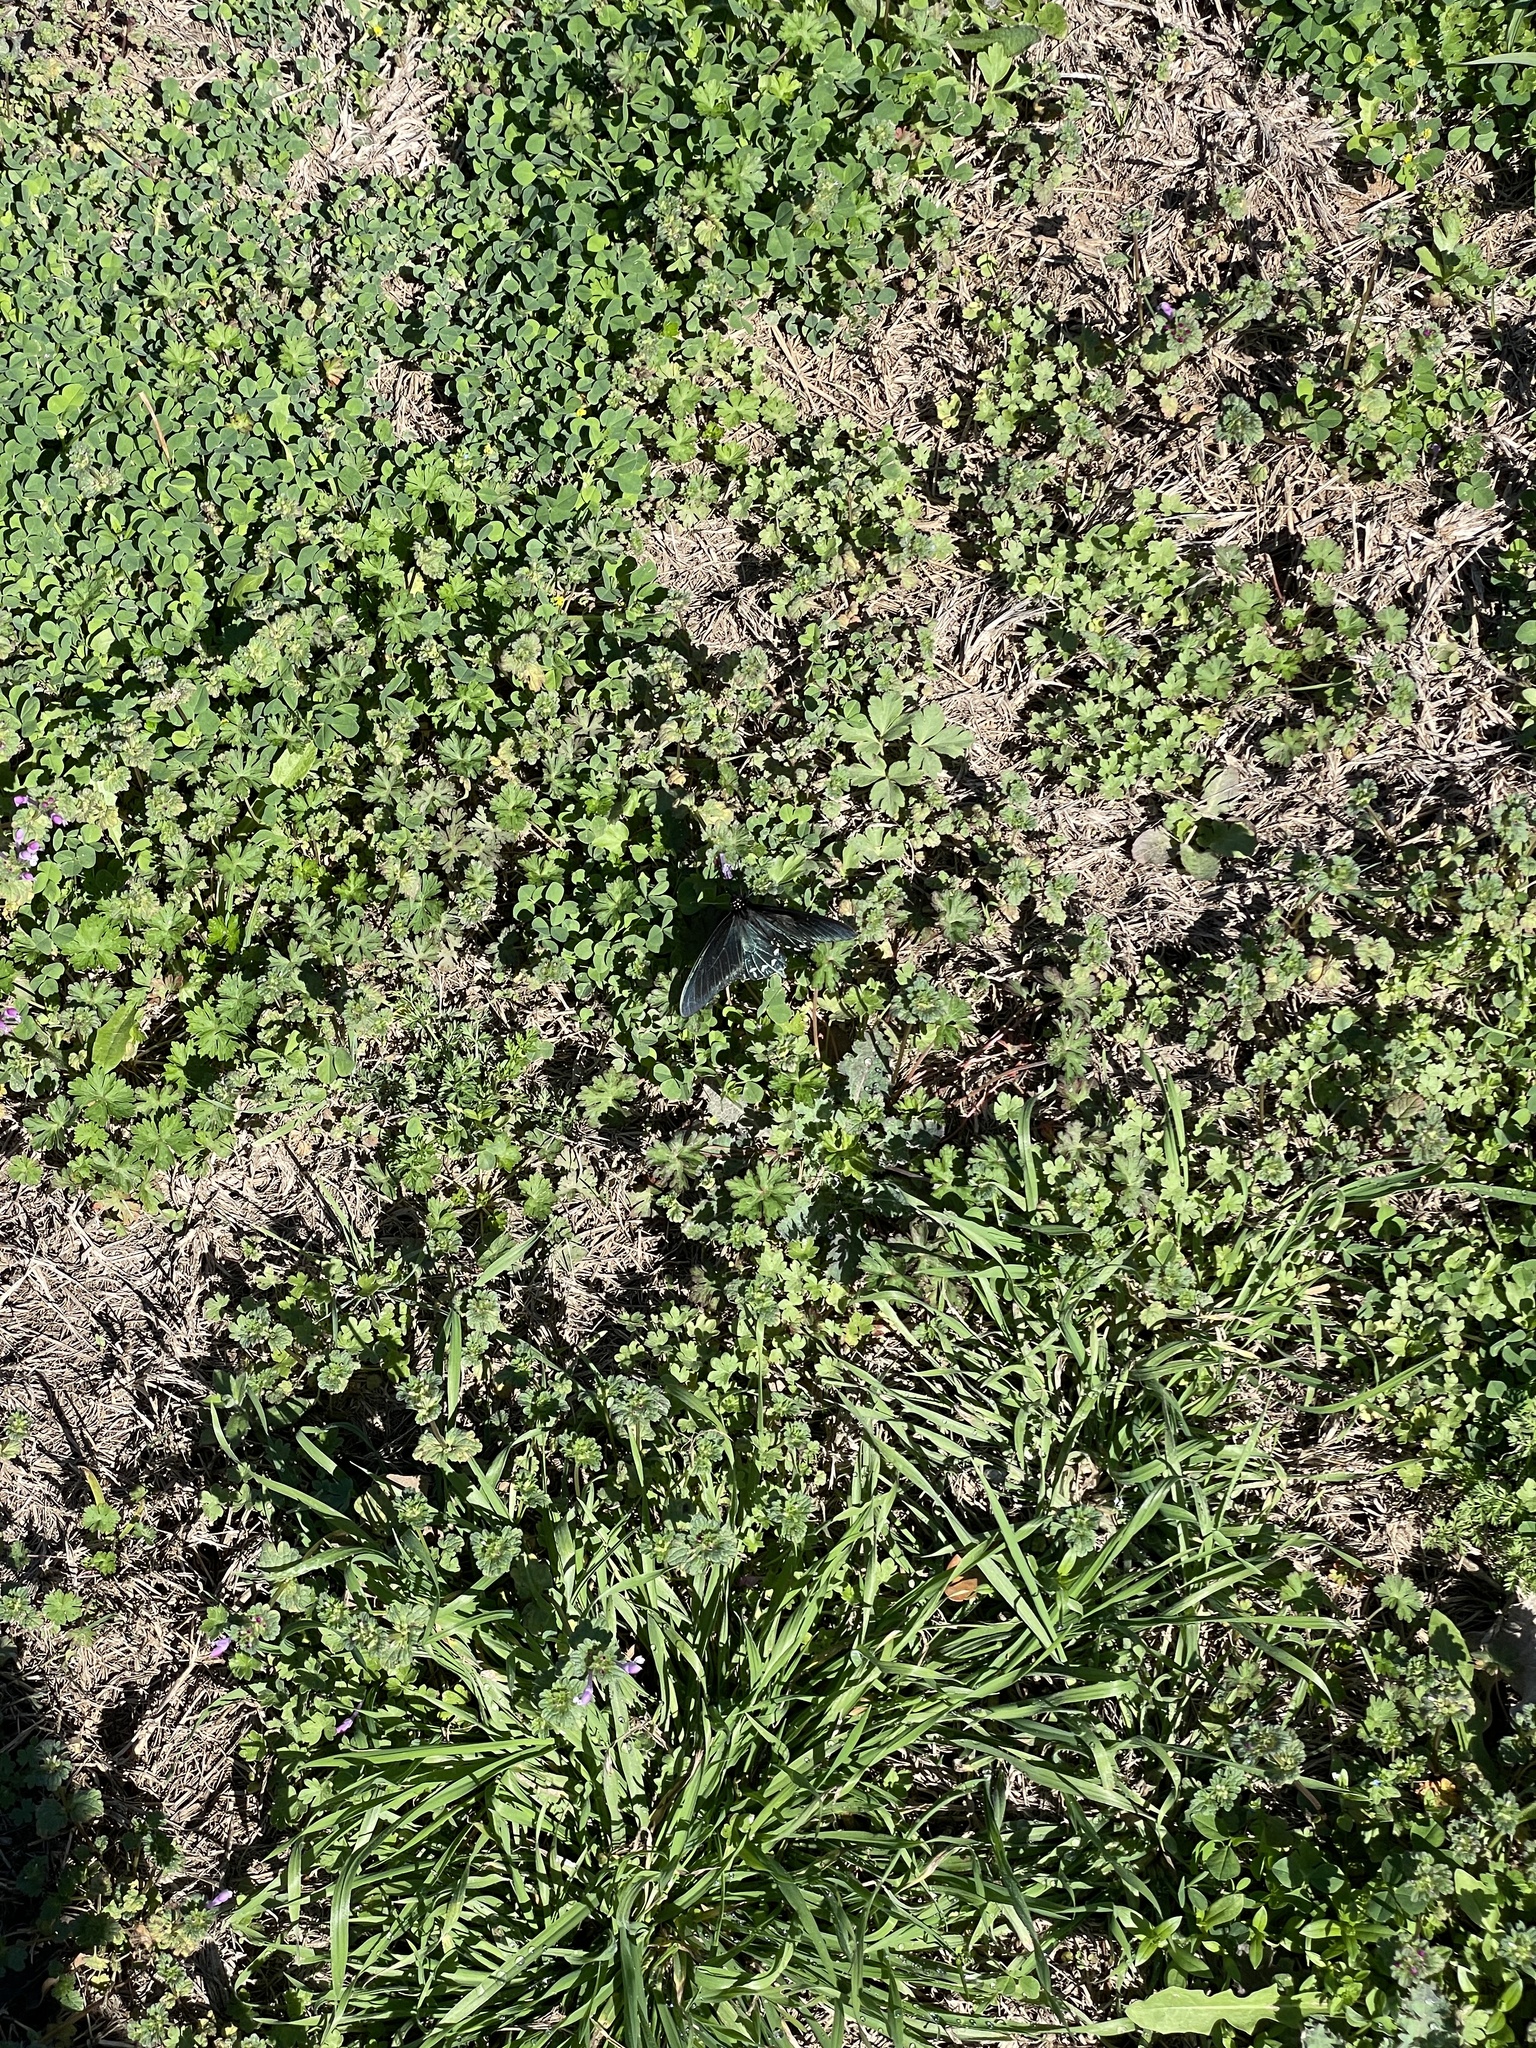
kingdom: Animalia
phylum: Arthropoda
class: Insecta
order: Lepidoptera
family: Papilionidae
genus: Battus
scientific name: Battus philenor
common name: Pipevine swallowtail
